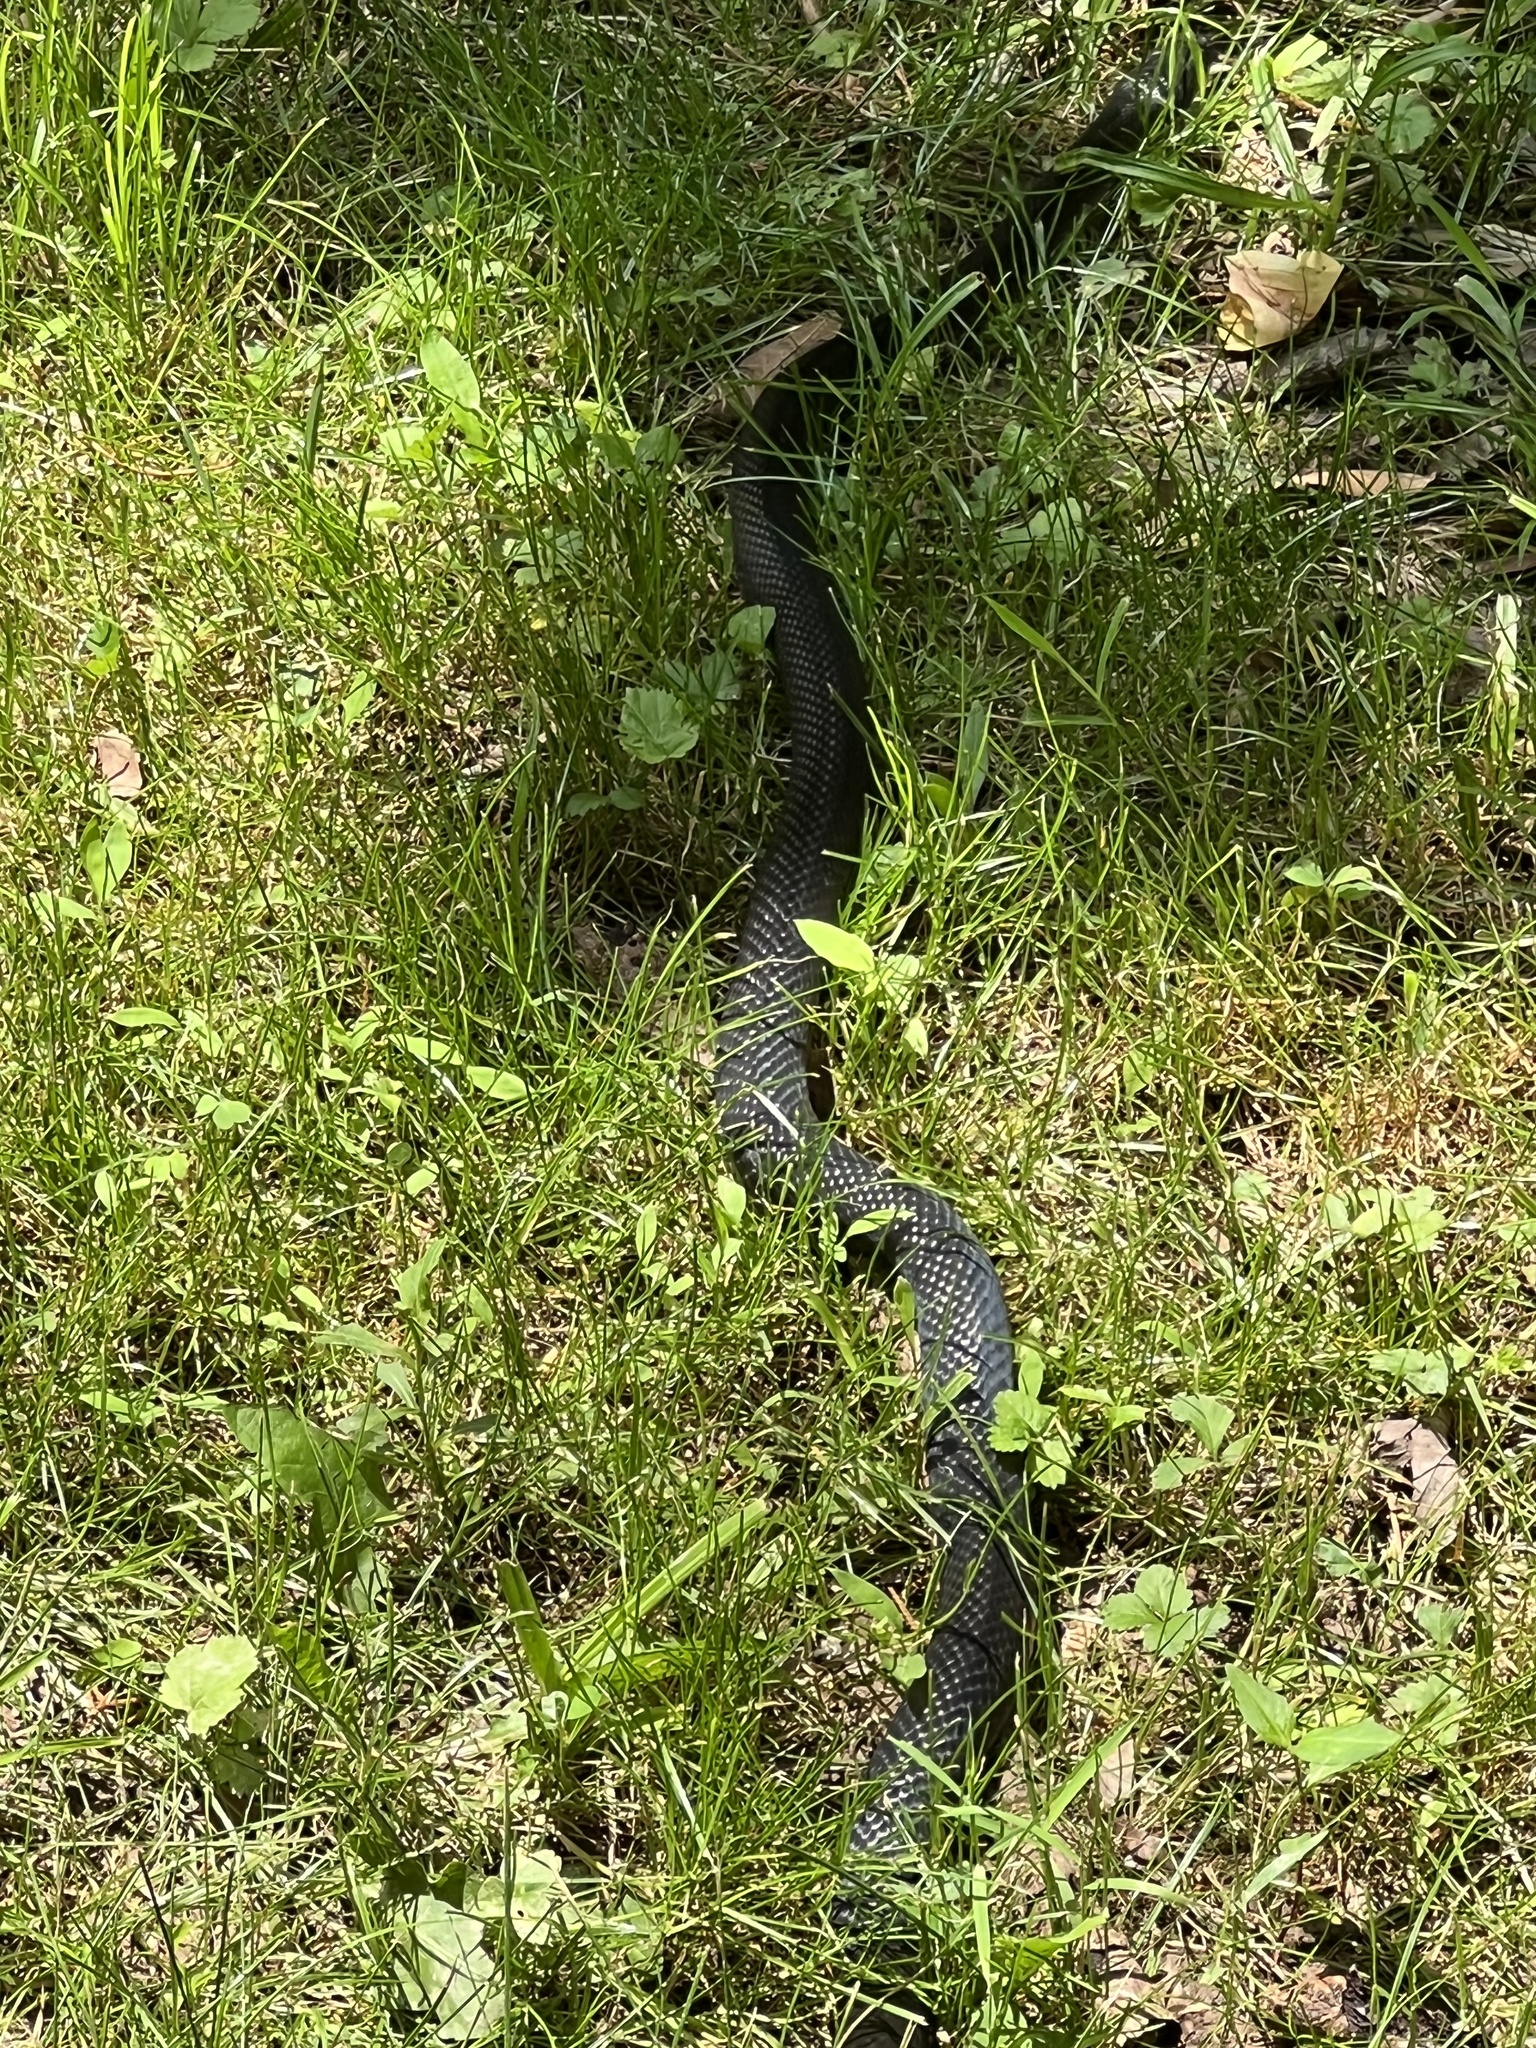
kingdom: Animalia
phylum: Chordata
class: Squamata
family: Colubridae
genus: Pantherophis
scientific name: Pantherophis alleghaniensis
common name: Eastern rat snake
